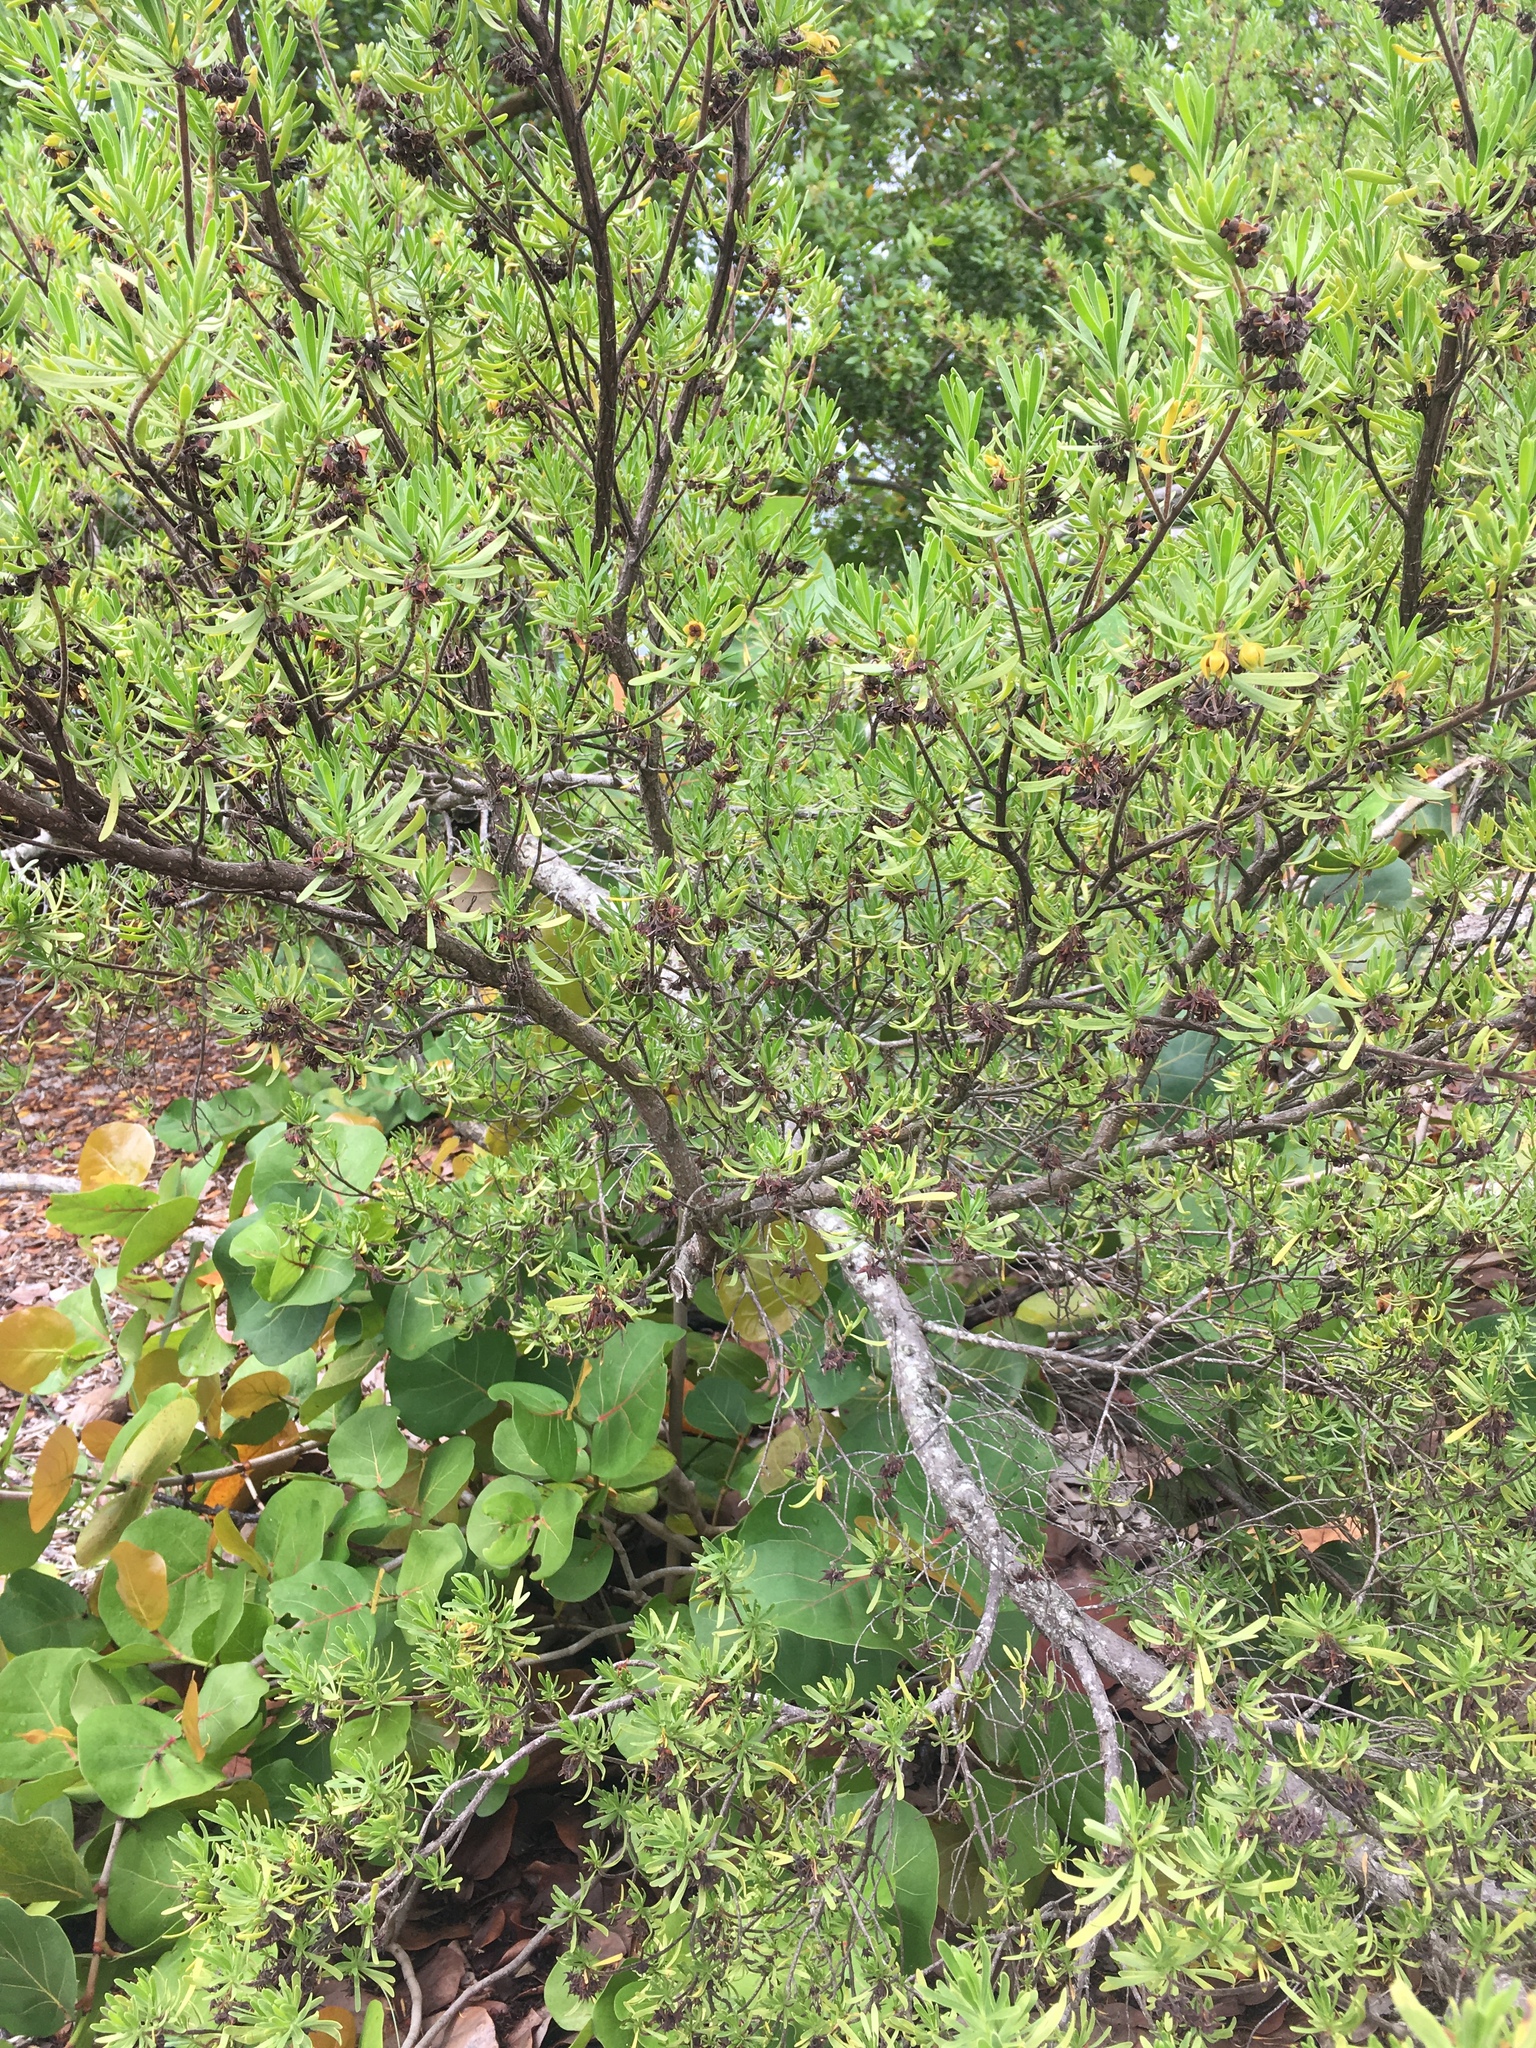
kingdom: Plantae
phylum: Tracheophyta
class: Magnoliopsida
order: Fabales
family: Surianaceae
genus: Suriana
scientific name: Suriana maritima
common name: Bay-cedar
